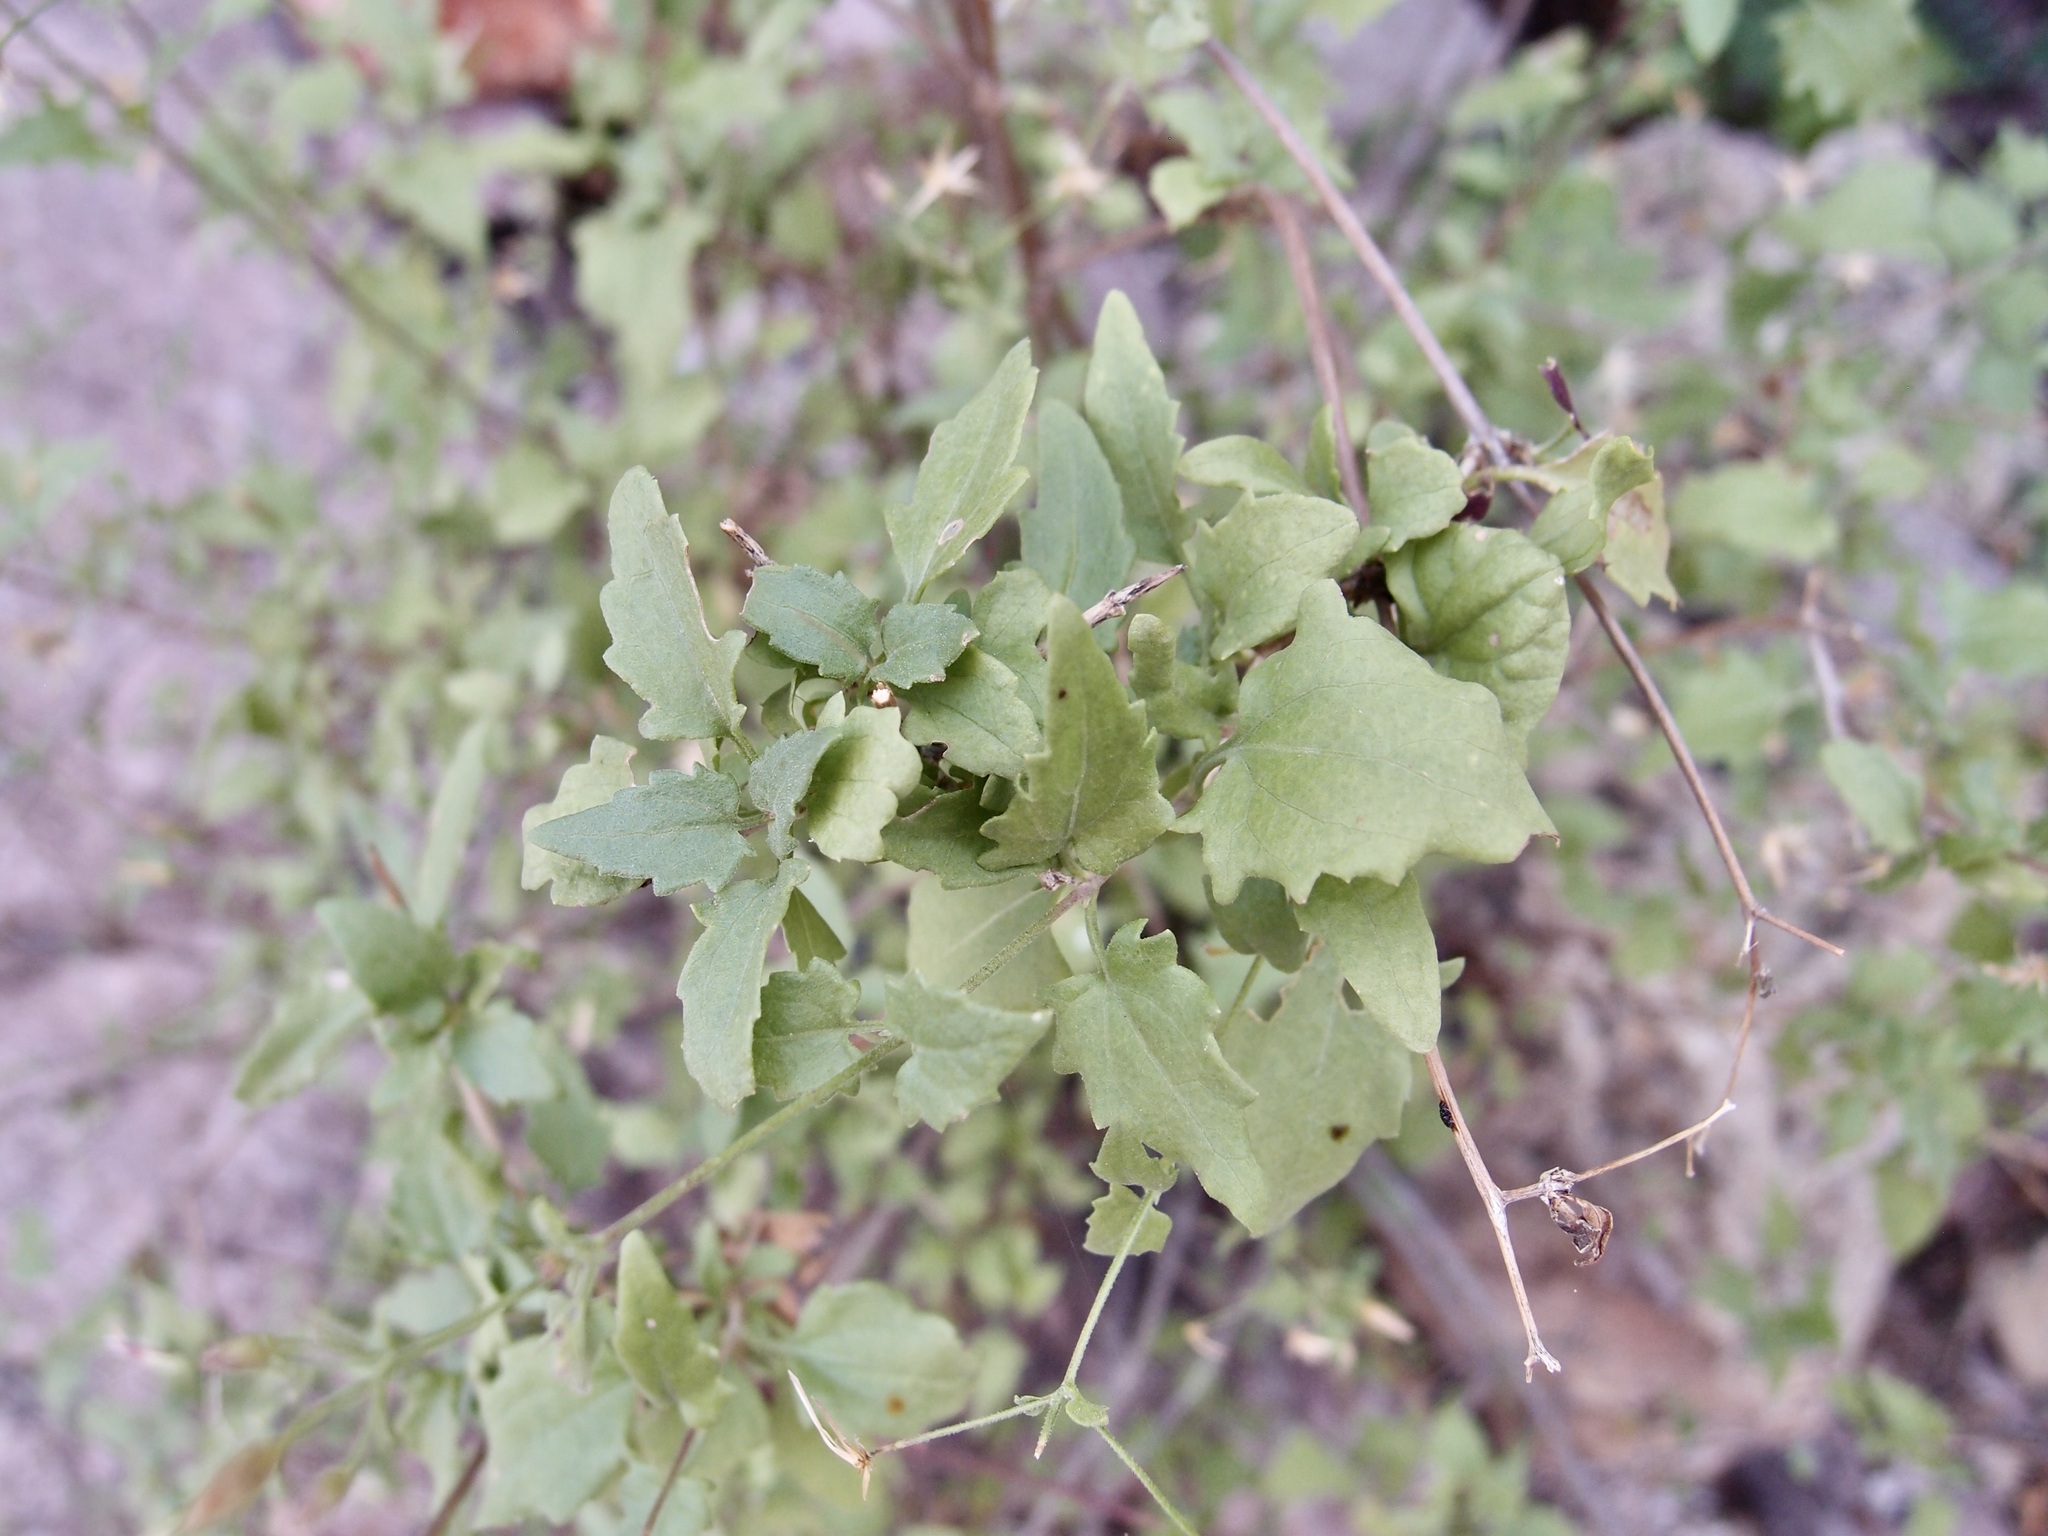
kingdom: Plantae
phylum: Tracheophyta
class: Magnoliopsida
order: Asterales
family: Asteraceae
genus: Brickellia
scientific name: Brickellia coulteri
